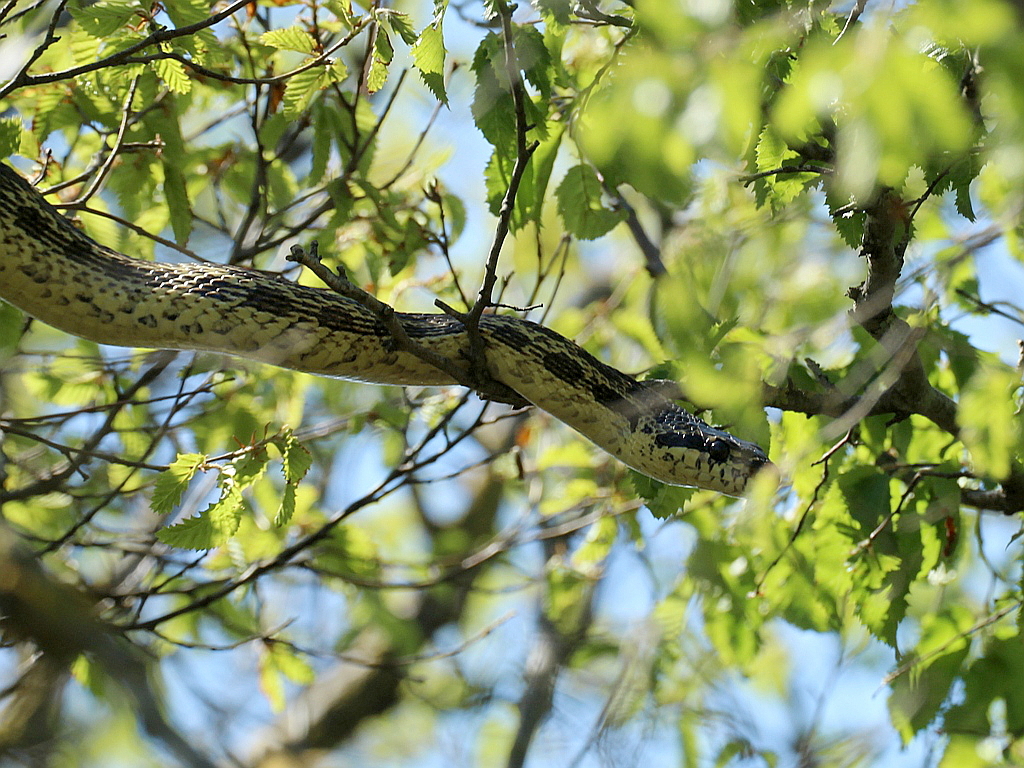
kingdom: Animalia
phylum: Chordata
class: Squamata
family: Colubridae
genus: Elaphe
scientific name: Elaphe sauromates
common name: Eastern four-lined ratsnake
